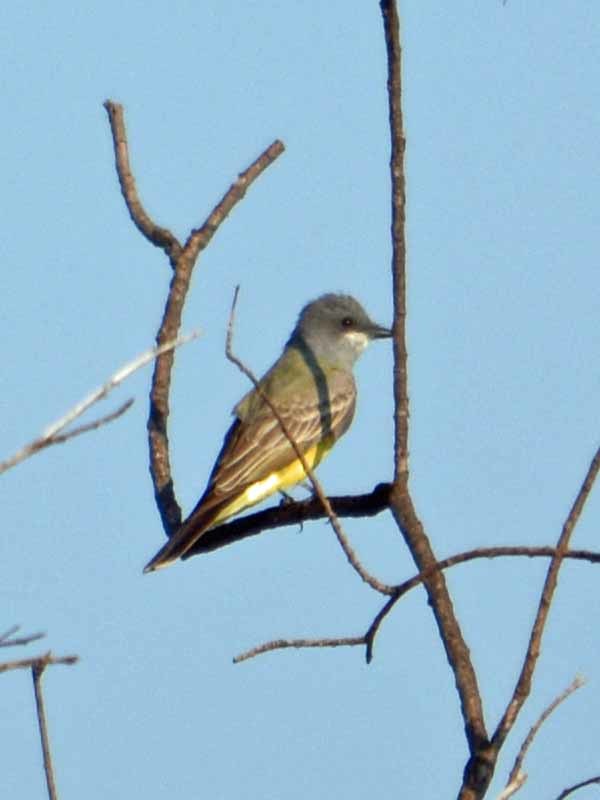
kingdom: Animalia
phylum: Chordata
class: Aves
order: Passeriformes
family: Tyrannidae
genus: Tyrannus
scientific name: Tyrannus vociferans
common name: Cassin's kingbird
